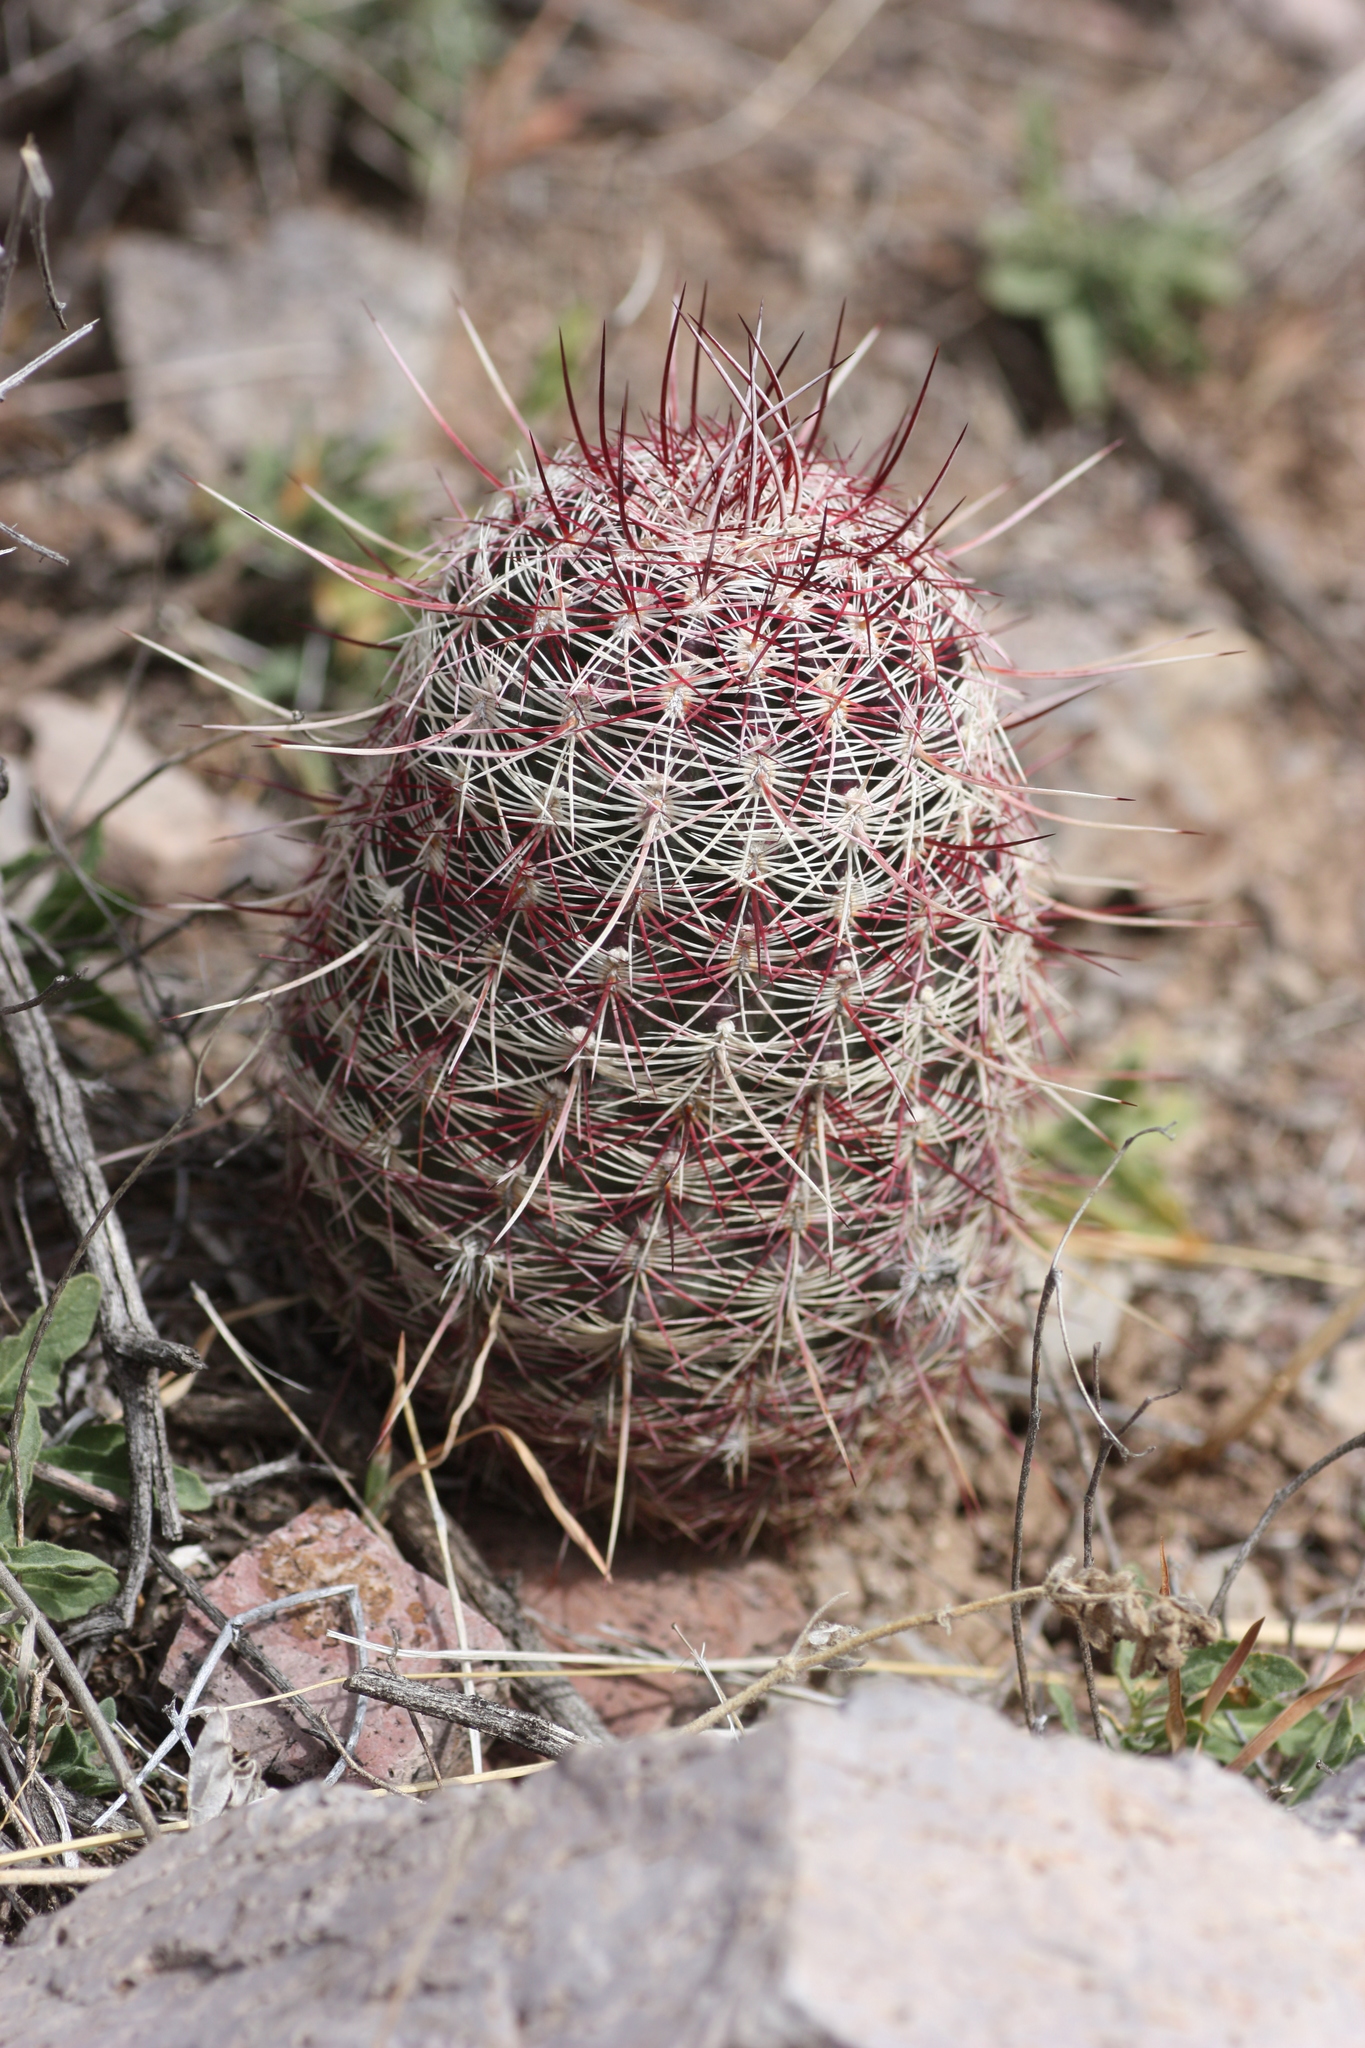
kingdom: Plantae
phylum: Tracheophyta
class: Magnoliopsida
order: Caryophyllales
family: Cactaceae
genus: Echinocereus
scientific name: Echinocereus viridiflorus
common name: Nylon hedgehog cactus
